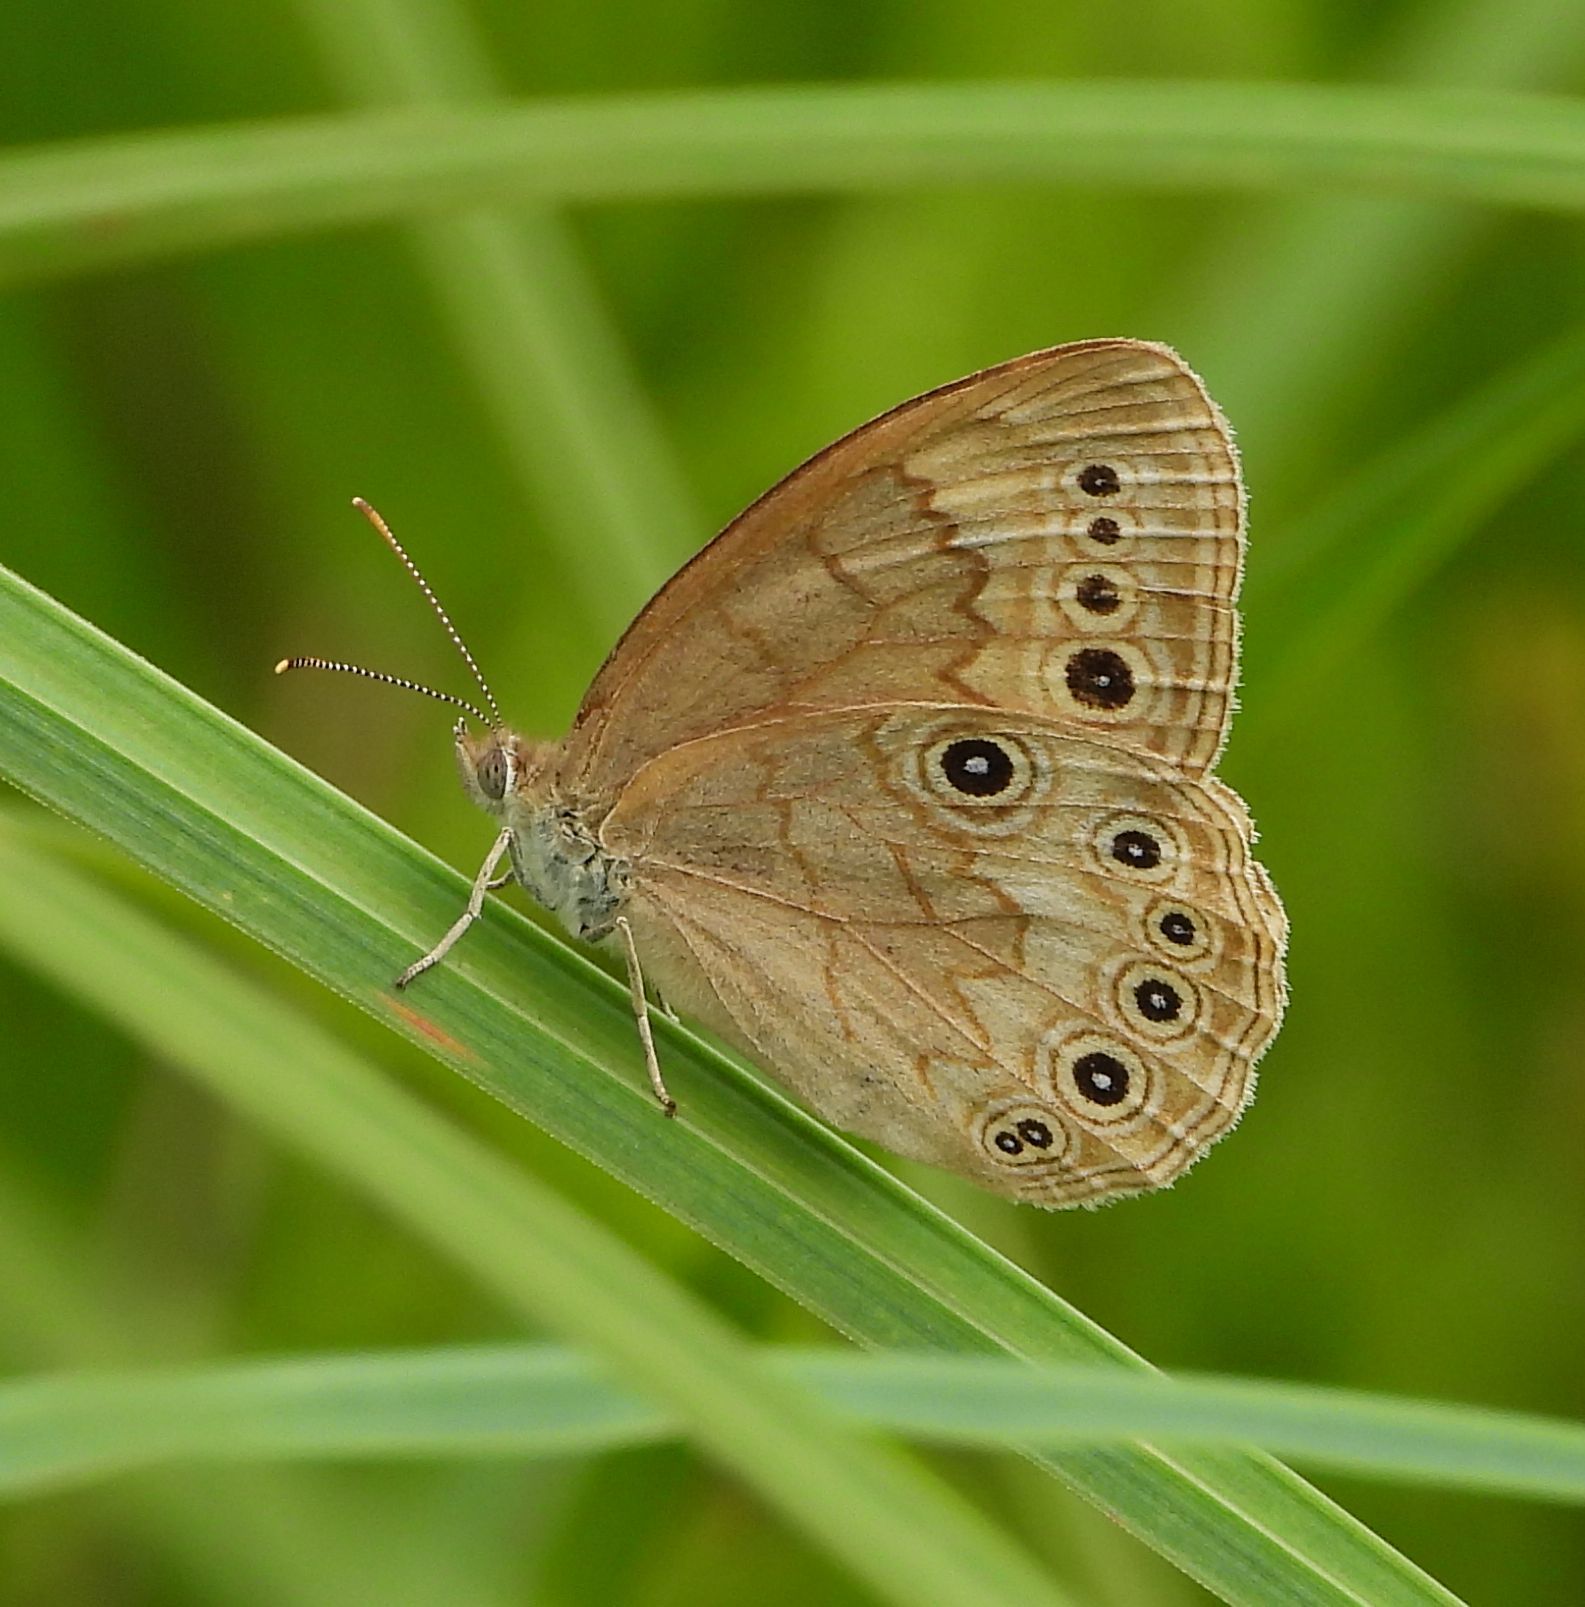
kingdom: Animalia
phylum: Arthropoda
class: Insecta
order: Lepidoptera
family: Nymphalidae
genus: Lethe
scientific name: Lethe eurydice
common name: Eyed brown
